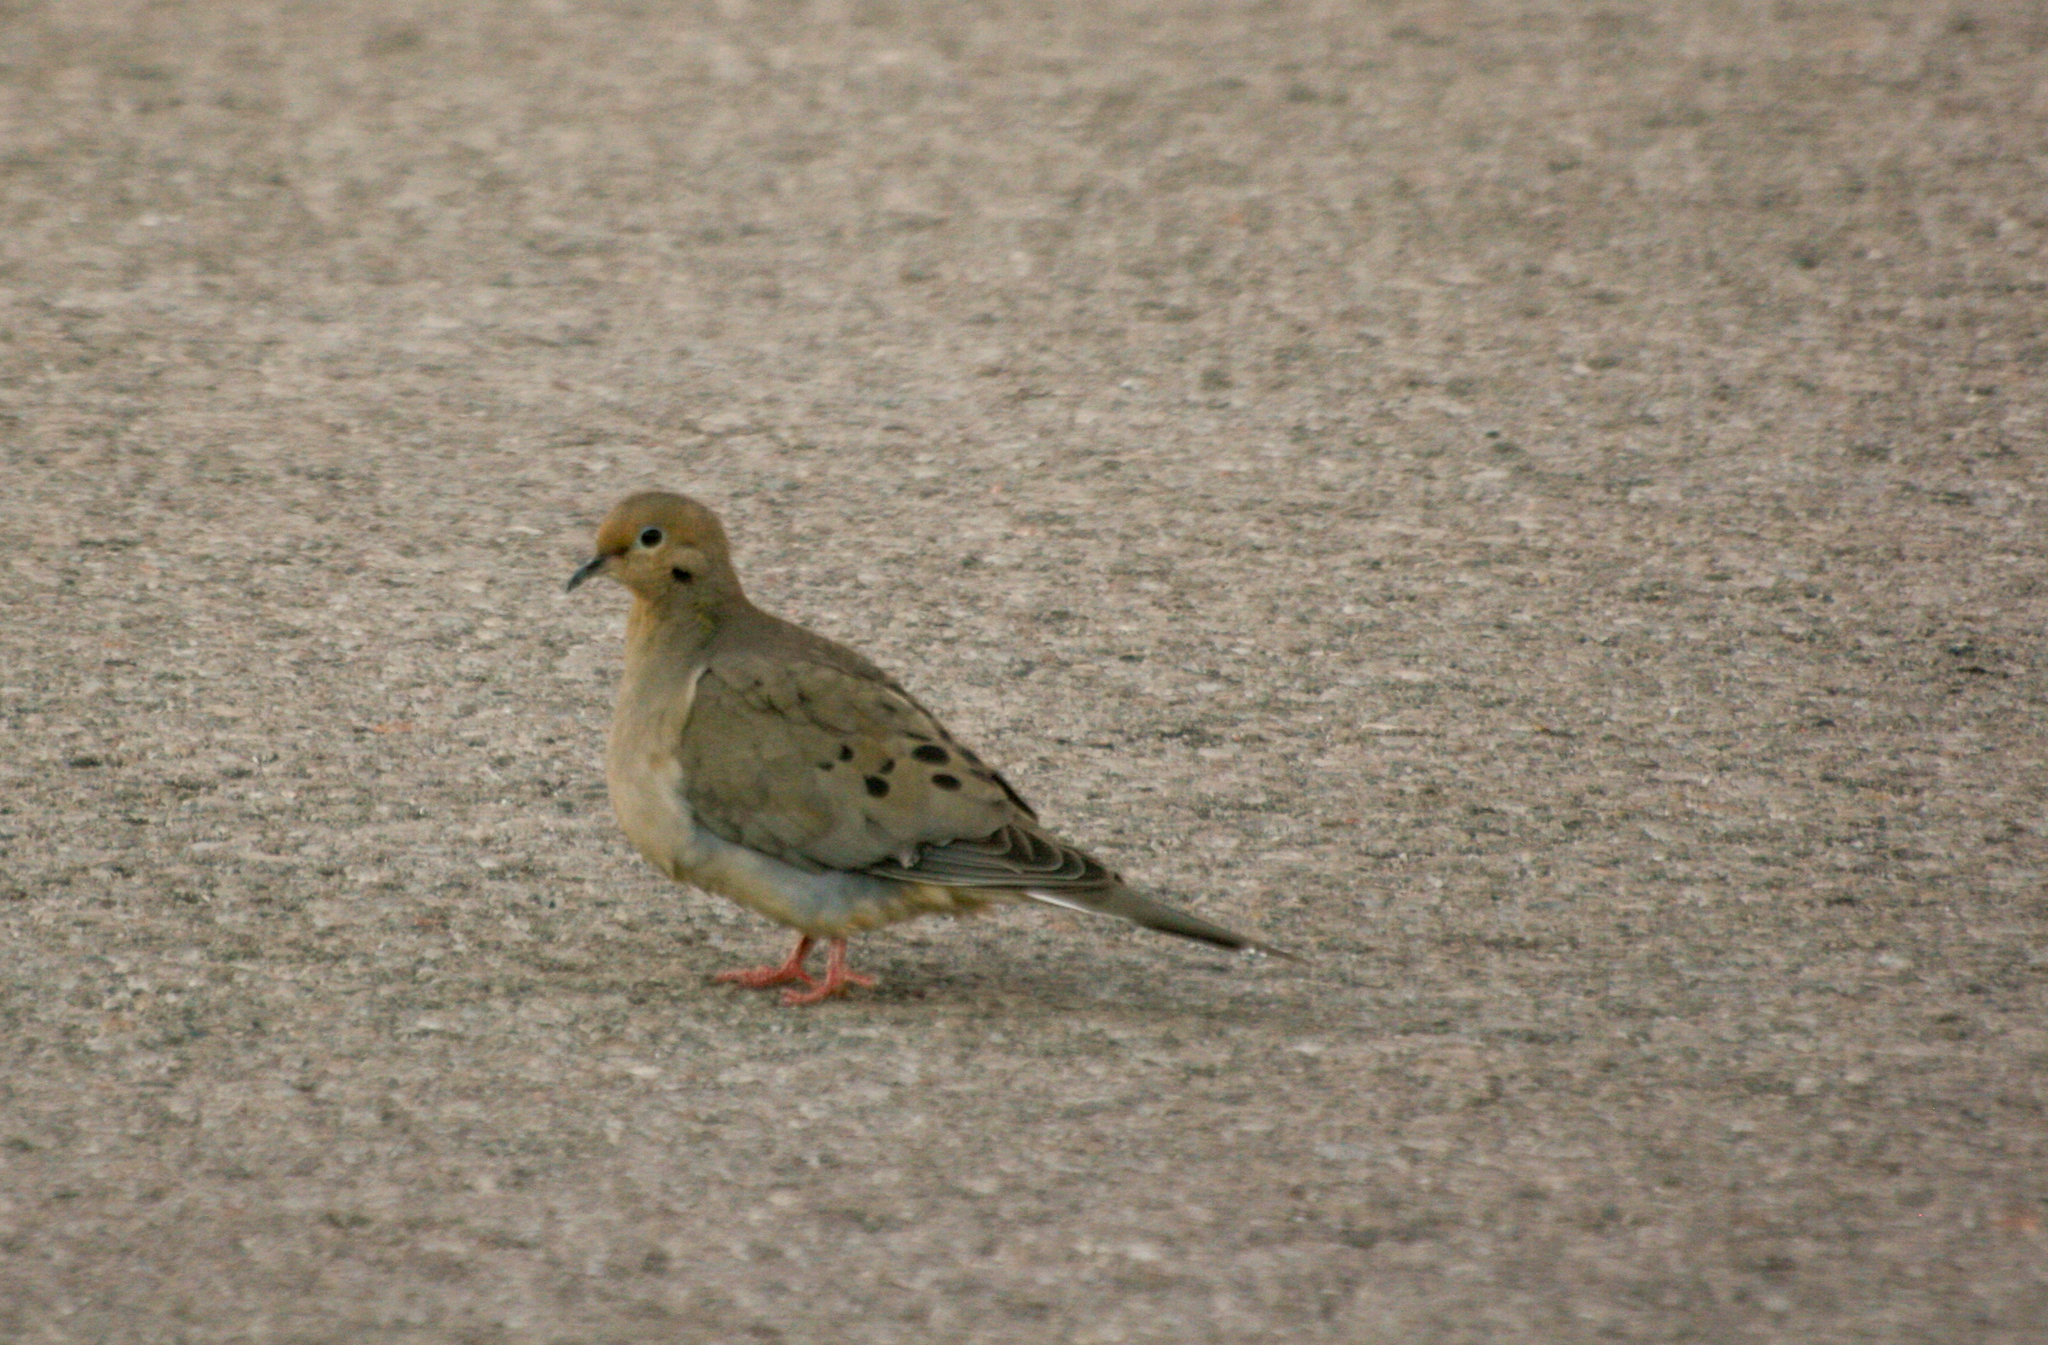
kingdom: Animalia
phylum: Chordata
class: Aves
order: Columbiformes
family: Columbidae
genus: Zenaida
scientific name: Zenaida macroura
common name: Mourning dove
